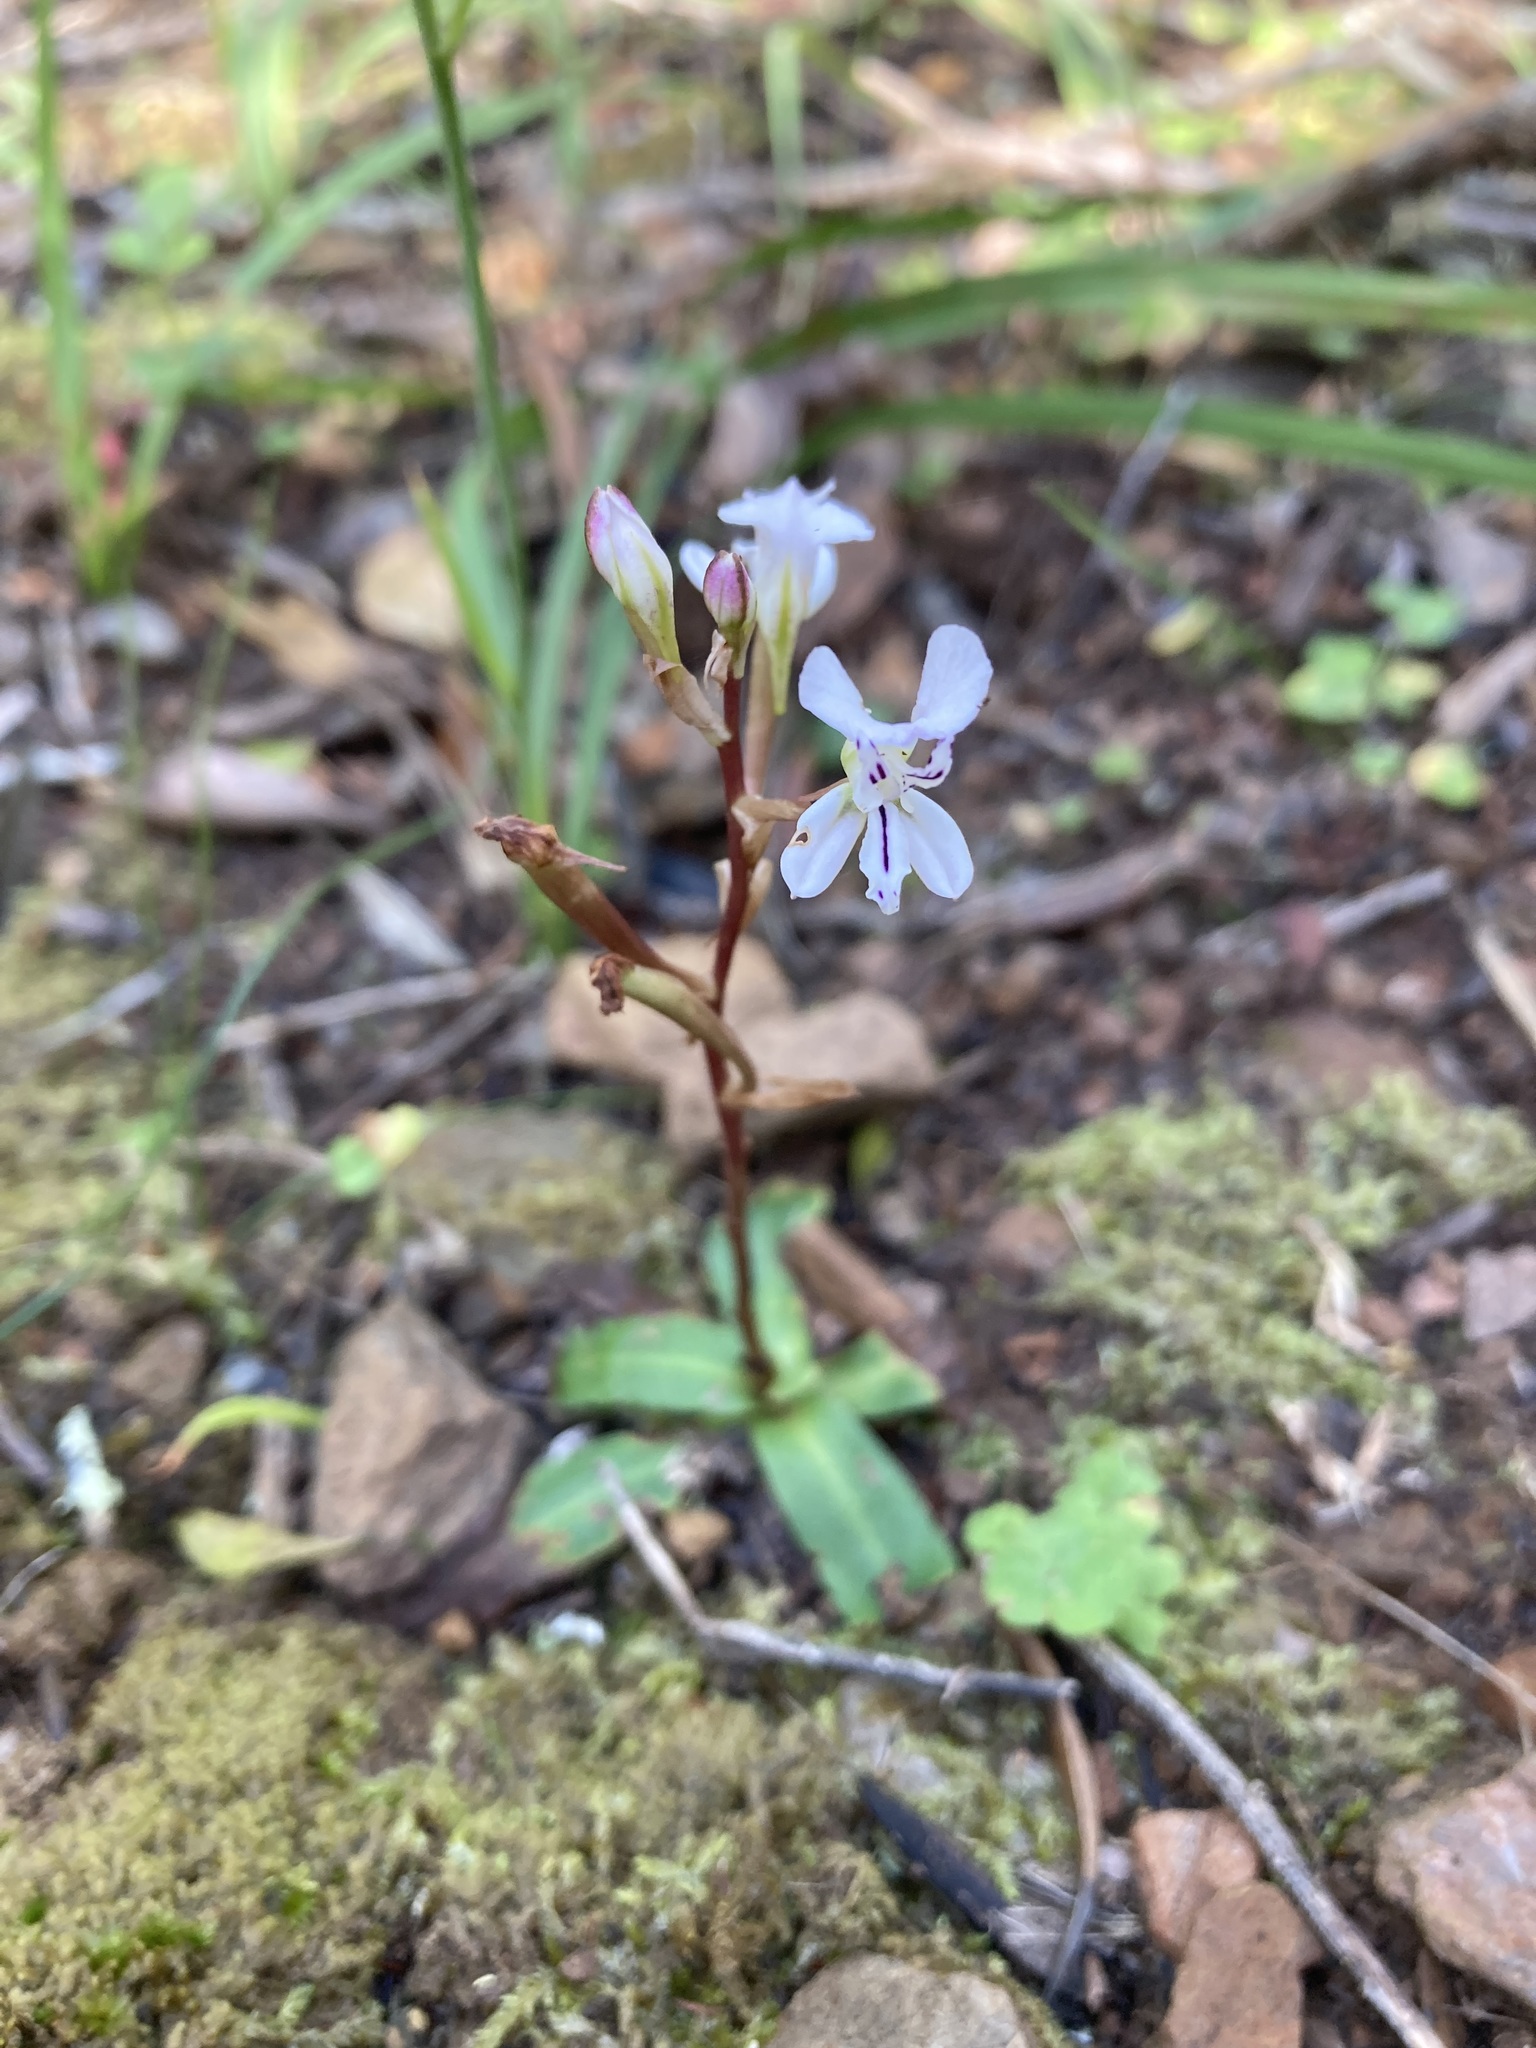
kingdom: Plantae
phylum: Tracheophyta
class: Liliopsida
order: Asparagales
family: Orchidaceae
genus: Disa
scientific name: Disa sagittalis
